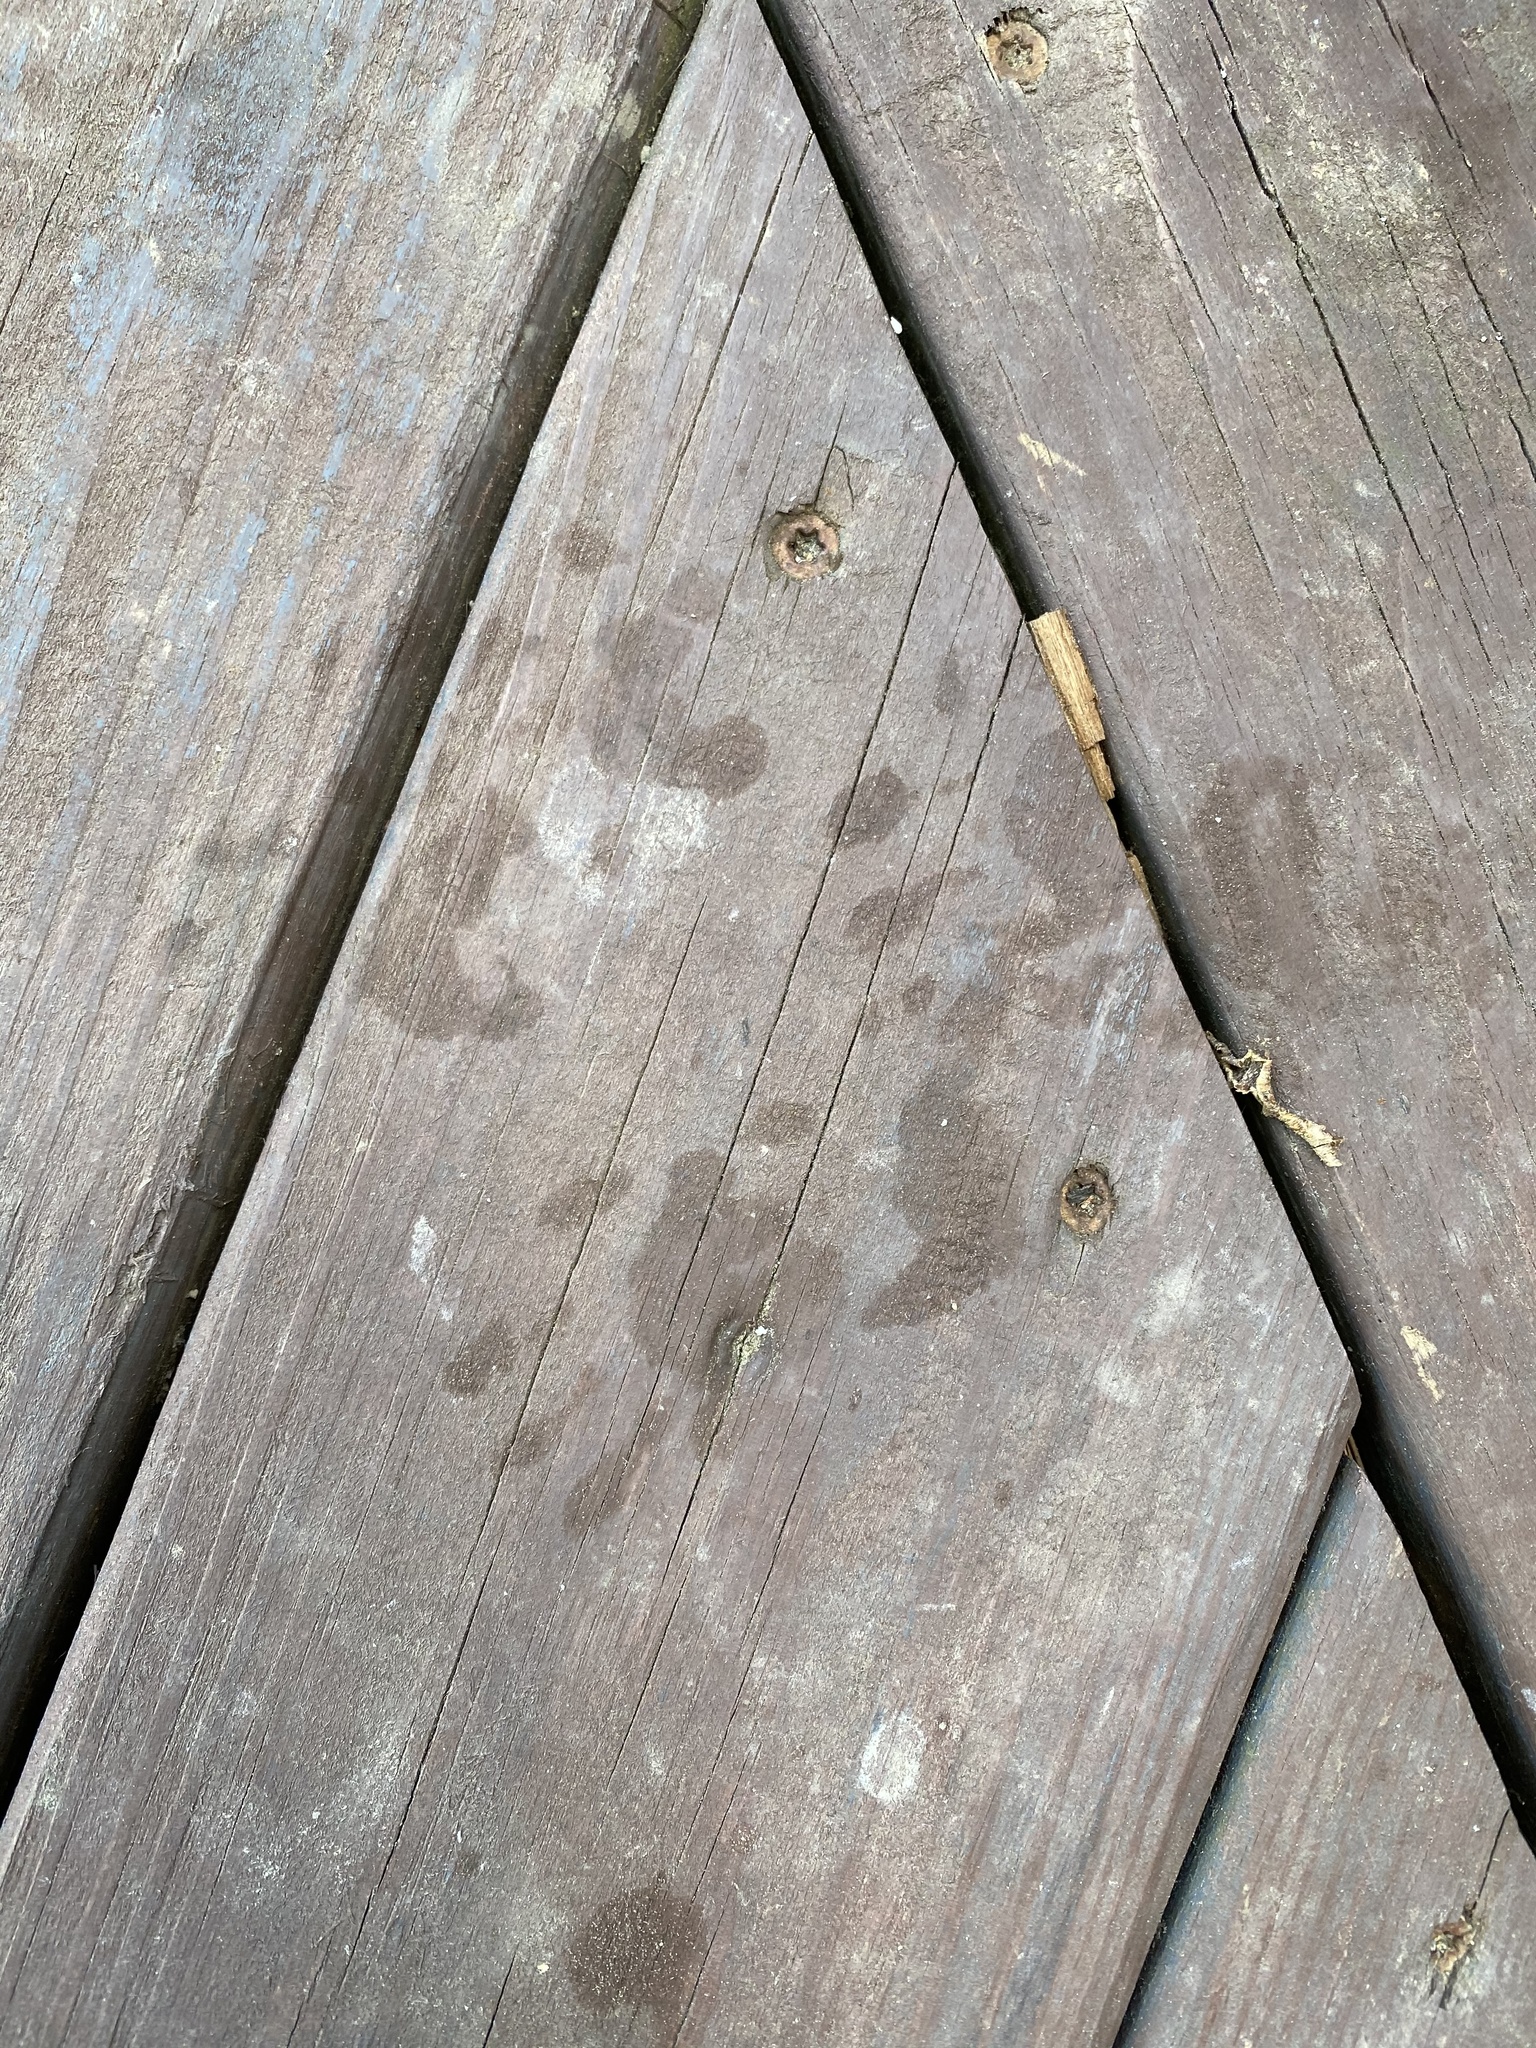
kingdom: Animalia
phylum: Chordata
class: Mammalia
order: Carnivora
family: Procyonidae
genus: Procyon
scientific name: Procyon lotor
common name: Raccoon
